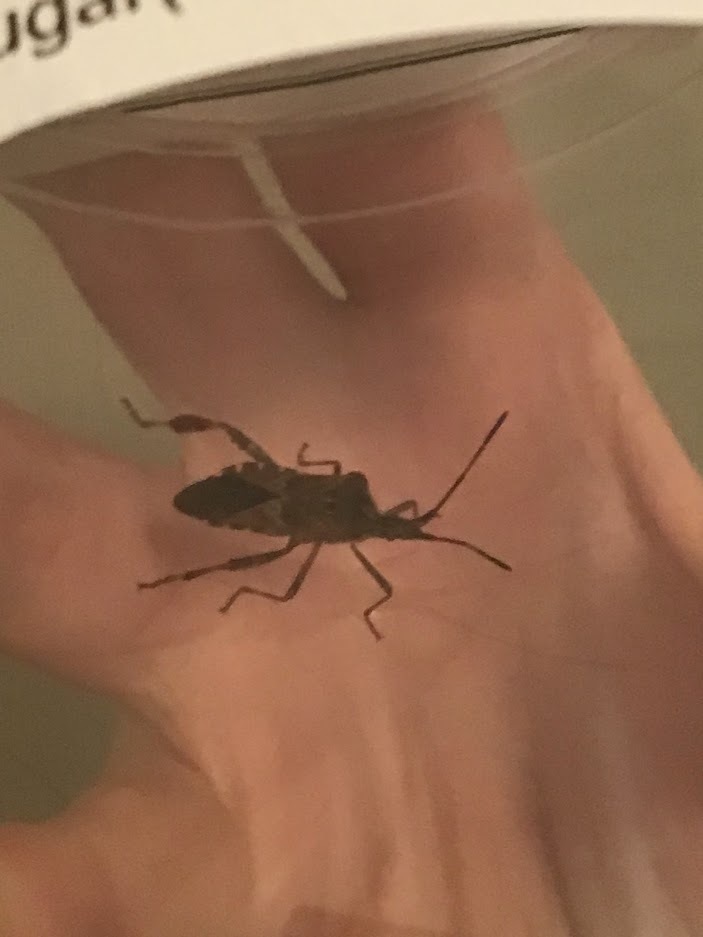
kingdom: Animalia
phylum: Arthropoda
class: Insecta
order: Hemiptera
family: Coreidae
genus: Leptoglossus
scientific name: Leptoglossus occidentalis
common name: Western conifer-seed bug
